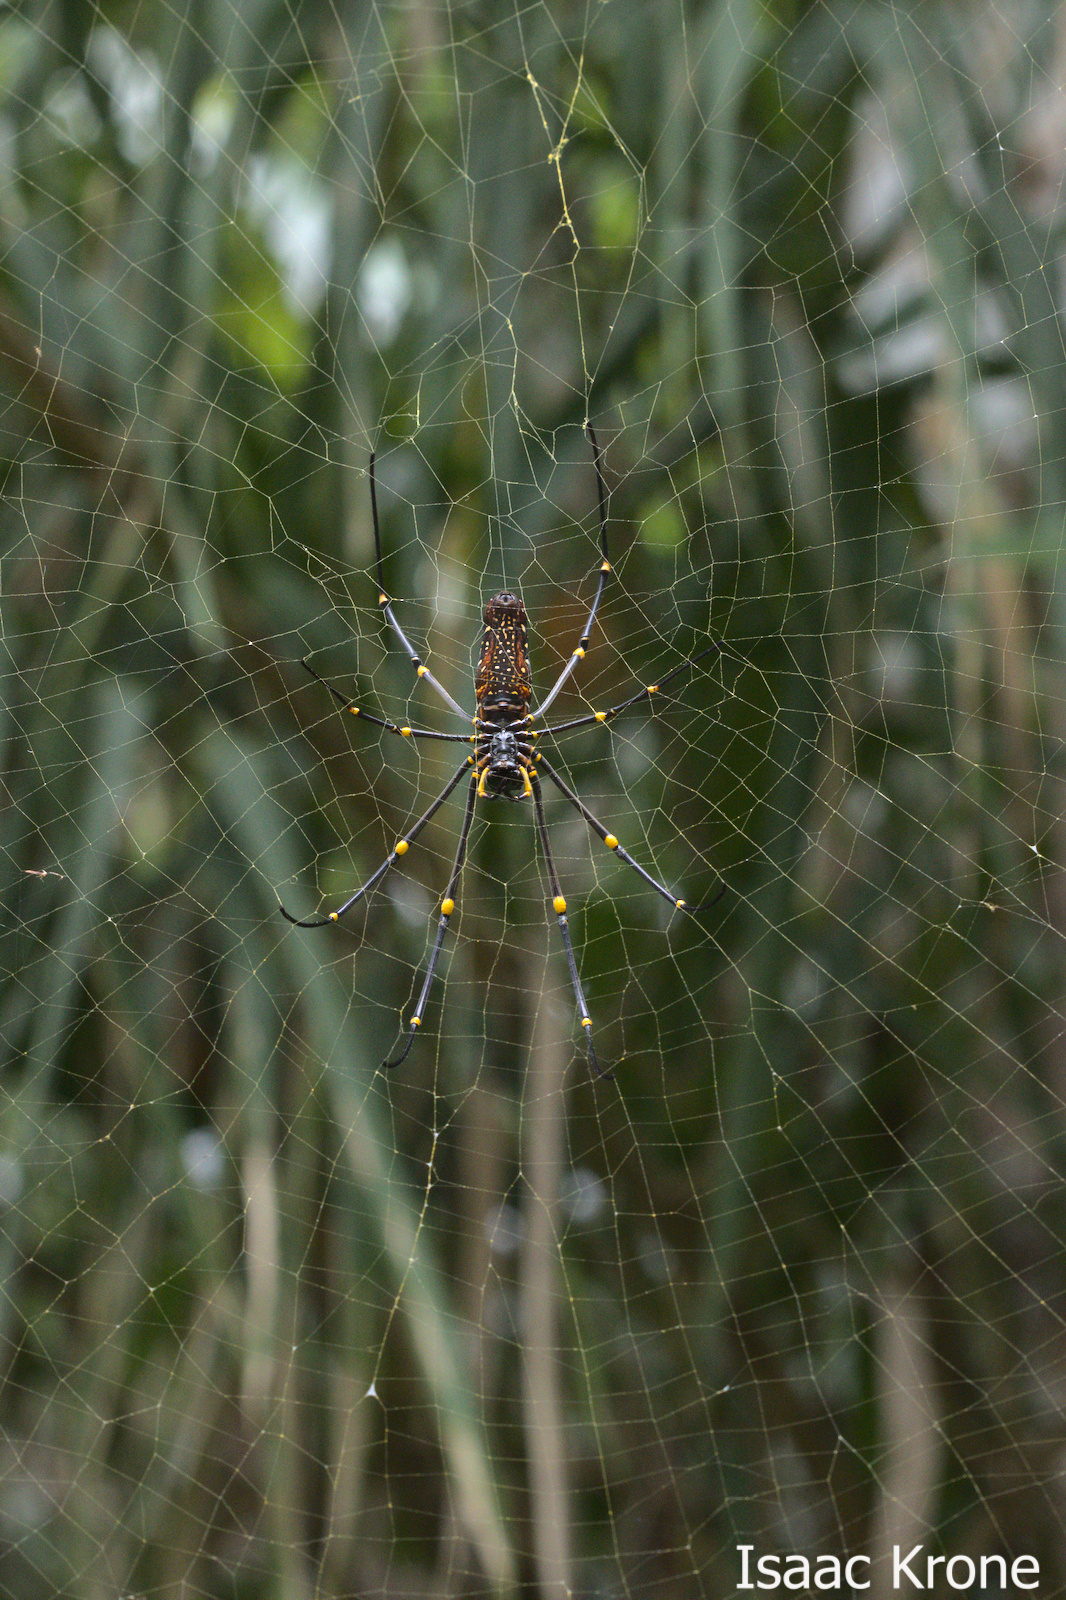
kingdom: Animalia
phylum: Arthropoda
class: Arachnida
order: Araneae
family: Araneidae
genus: Nephila
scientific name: Nephila pilipes
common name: Giant golden orb weaver
